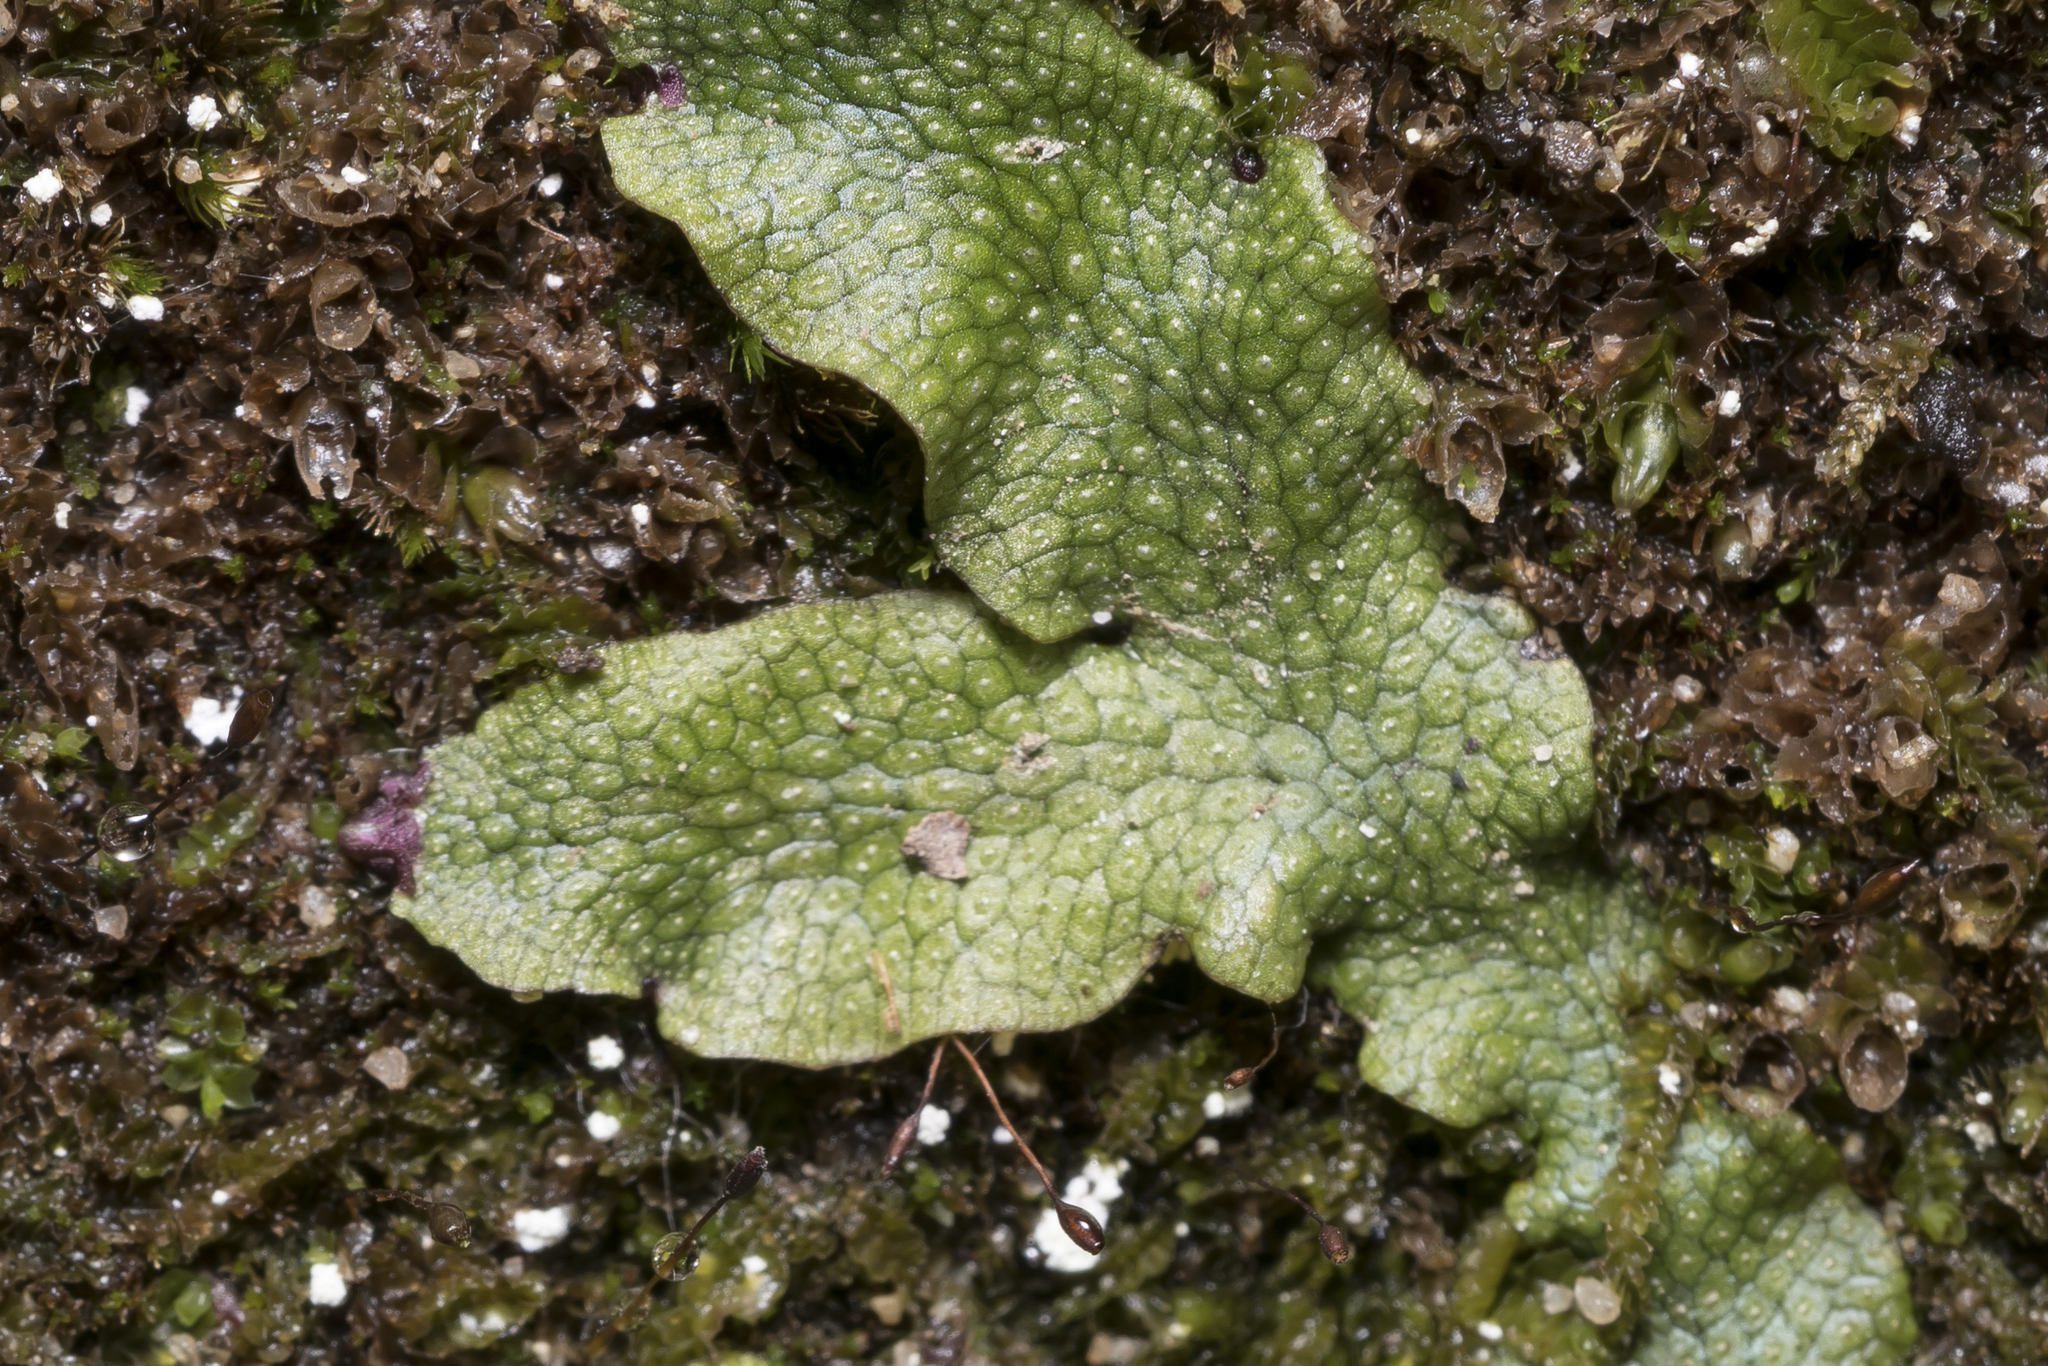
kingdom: Plantae
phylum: Marchantiophyta
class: Marchantiopsida
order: Marchantiales
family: Conocephalaceae
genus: Conocephalum
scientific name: Conocephalum salebrosum
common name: Cat-tongue liverwort
